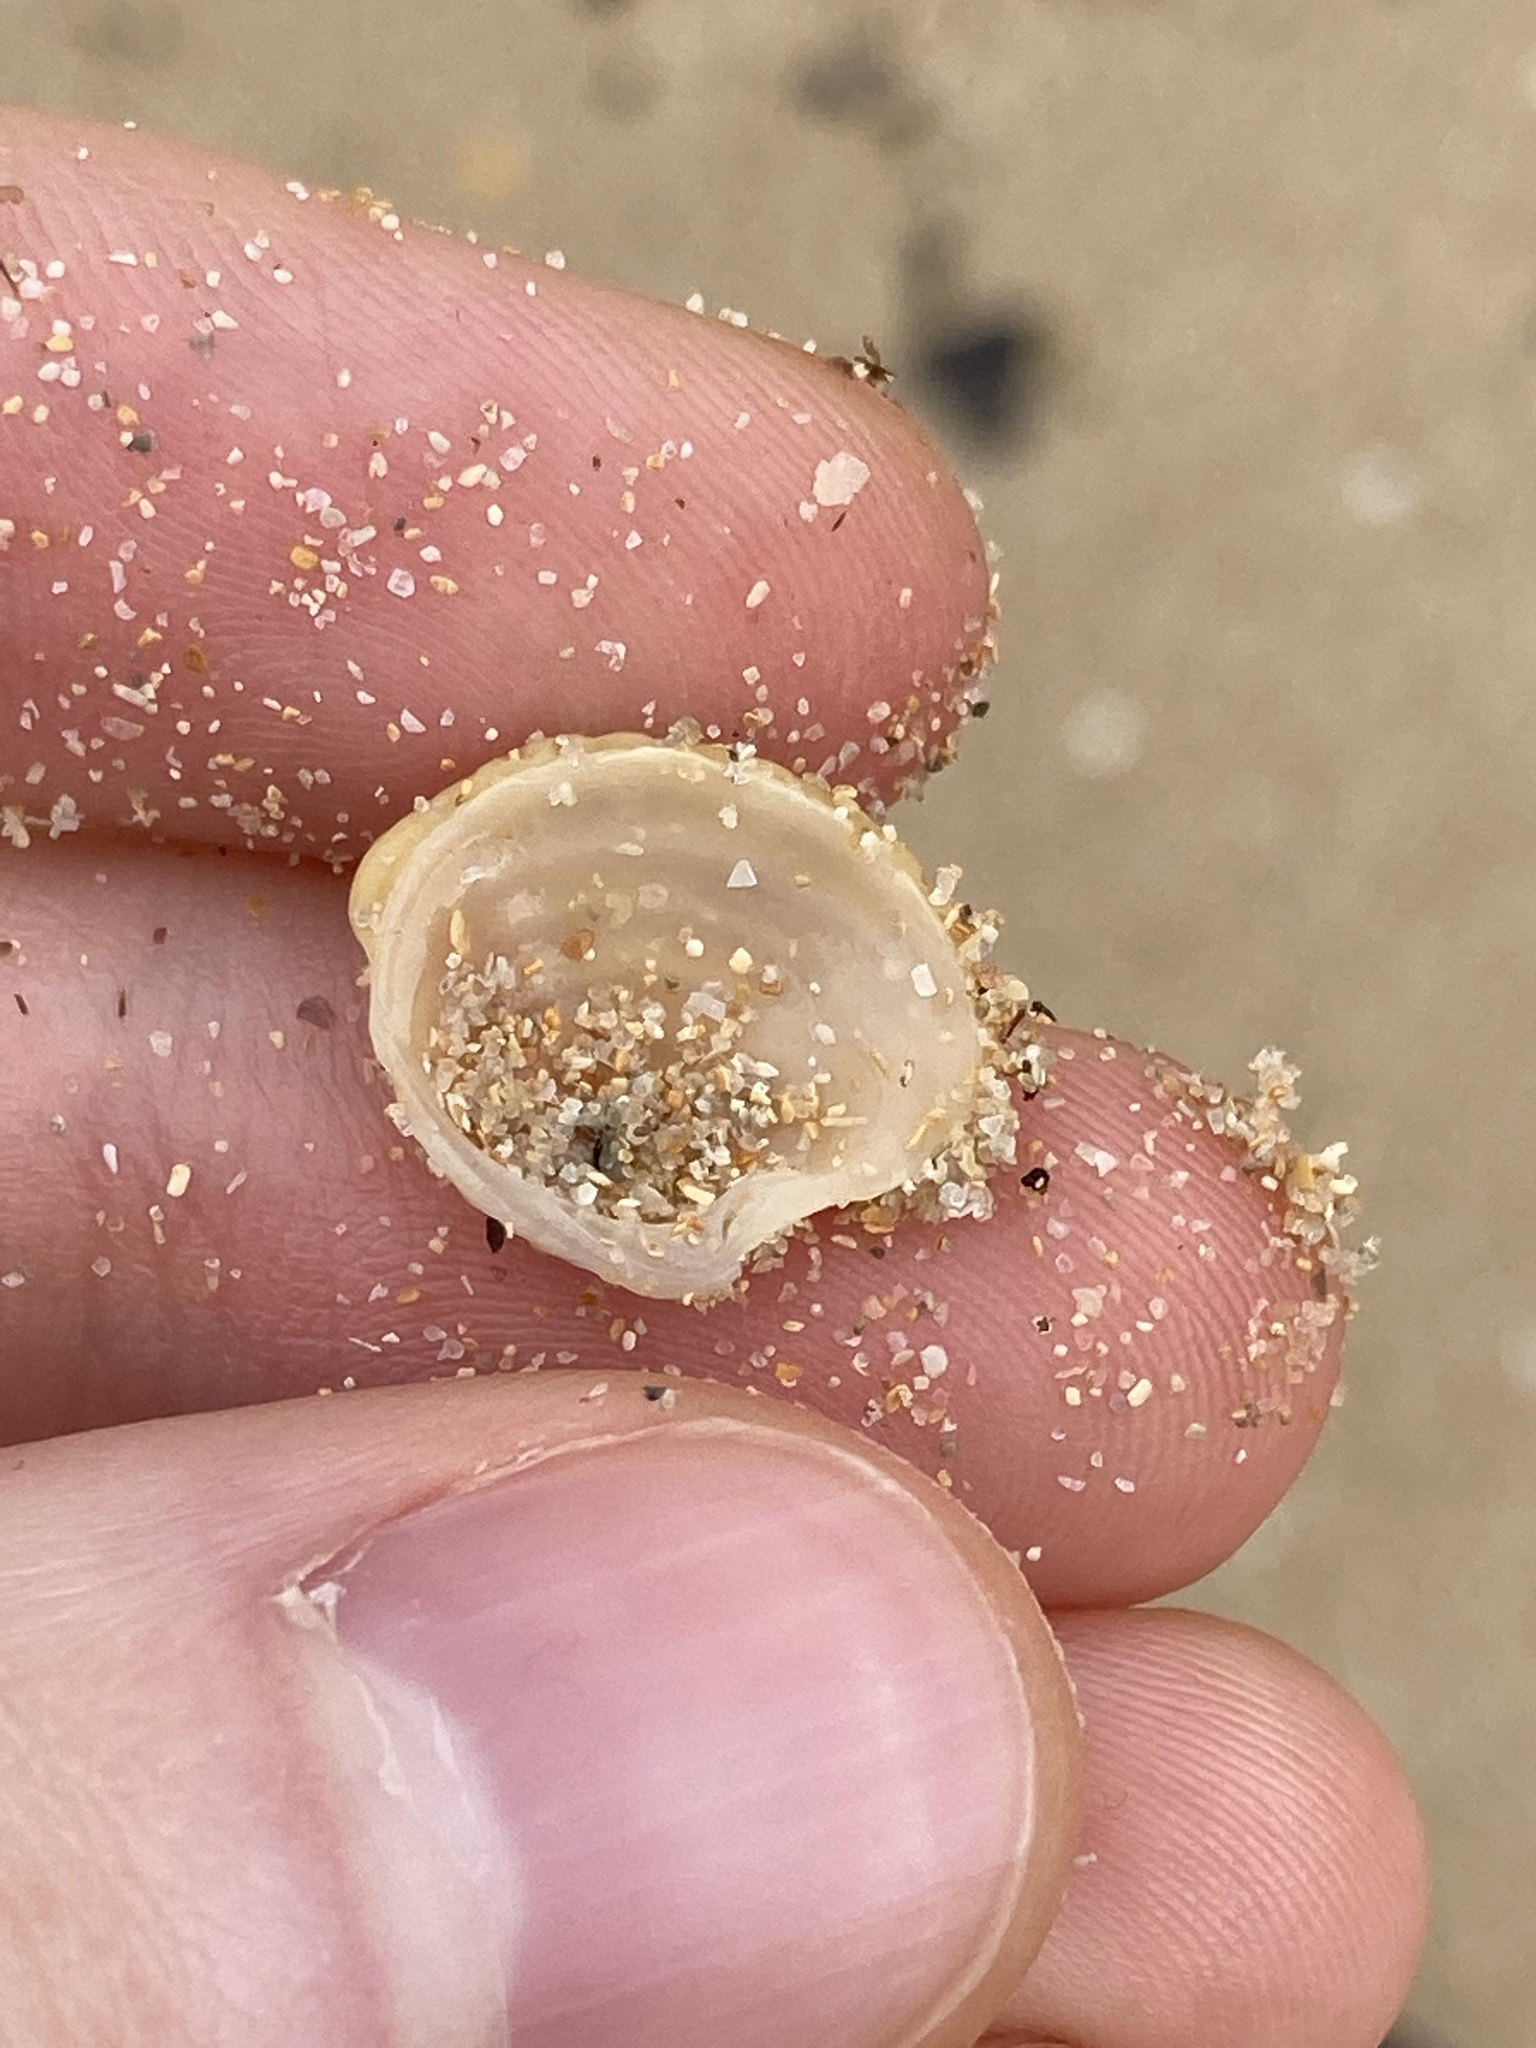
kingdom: Animalia
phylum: Mollusca
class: Bivalvia
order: Venerida
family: Veneridae
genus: Placamen
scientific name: Placamen placidum
